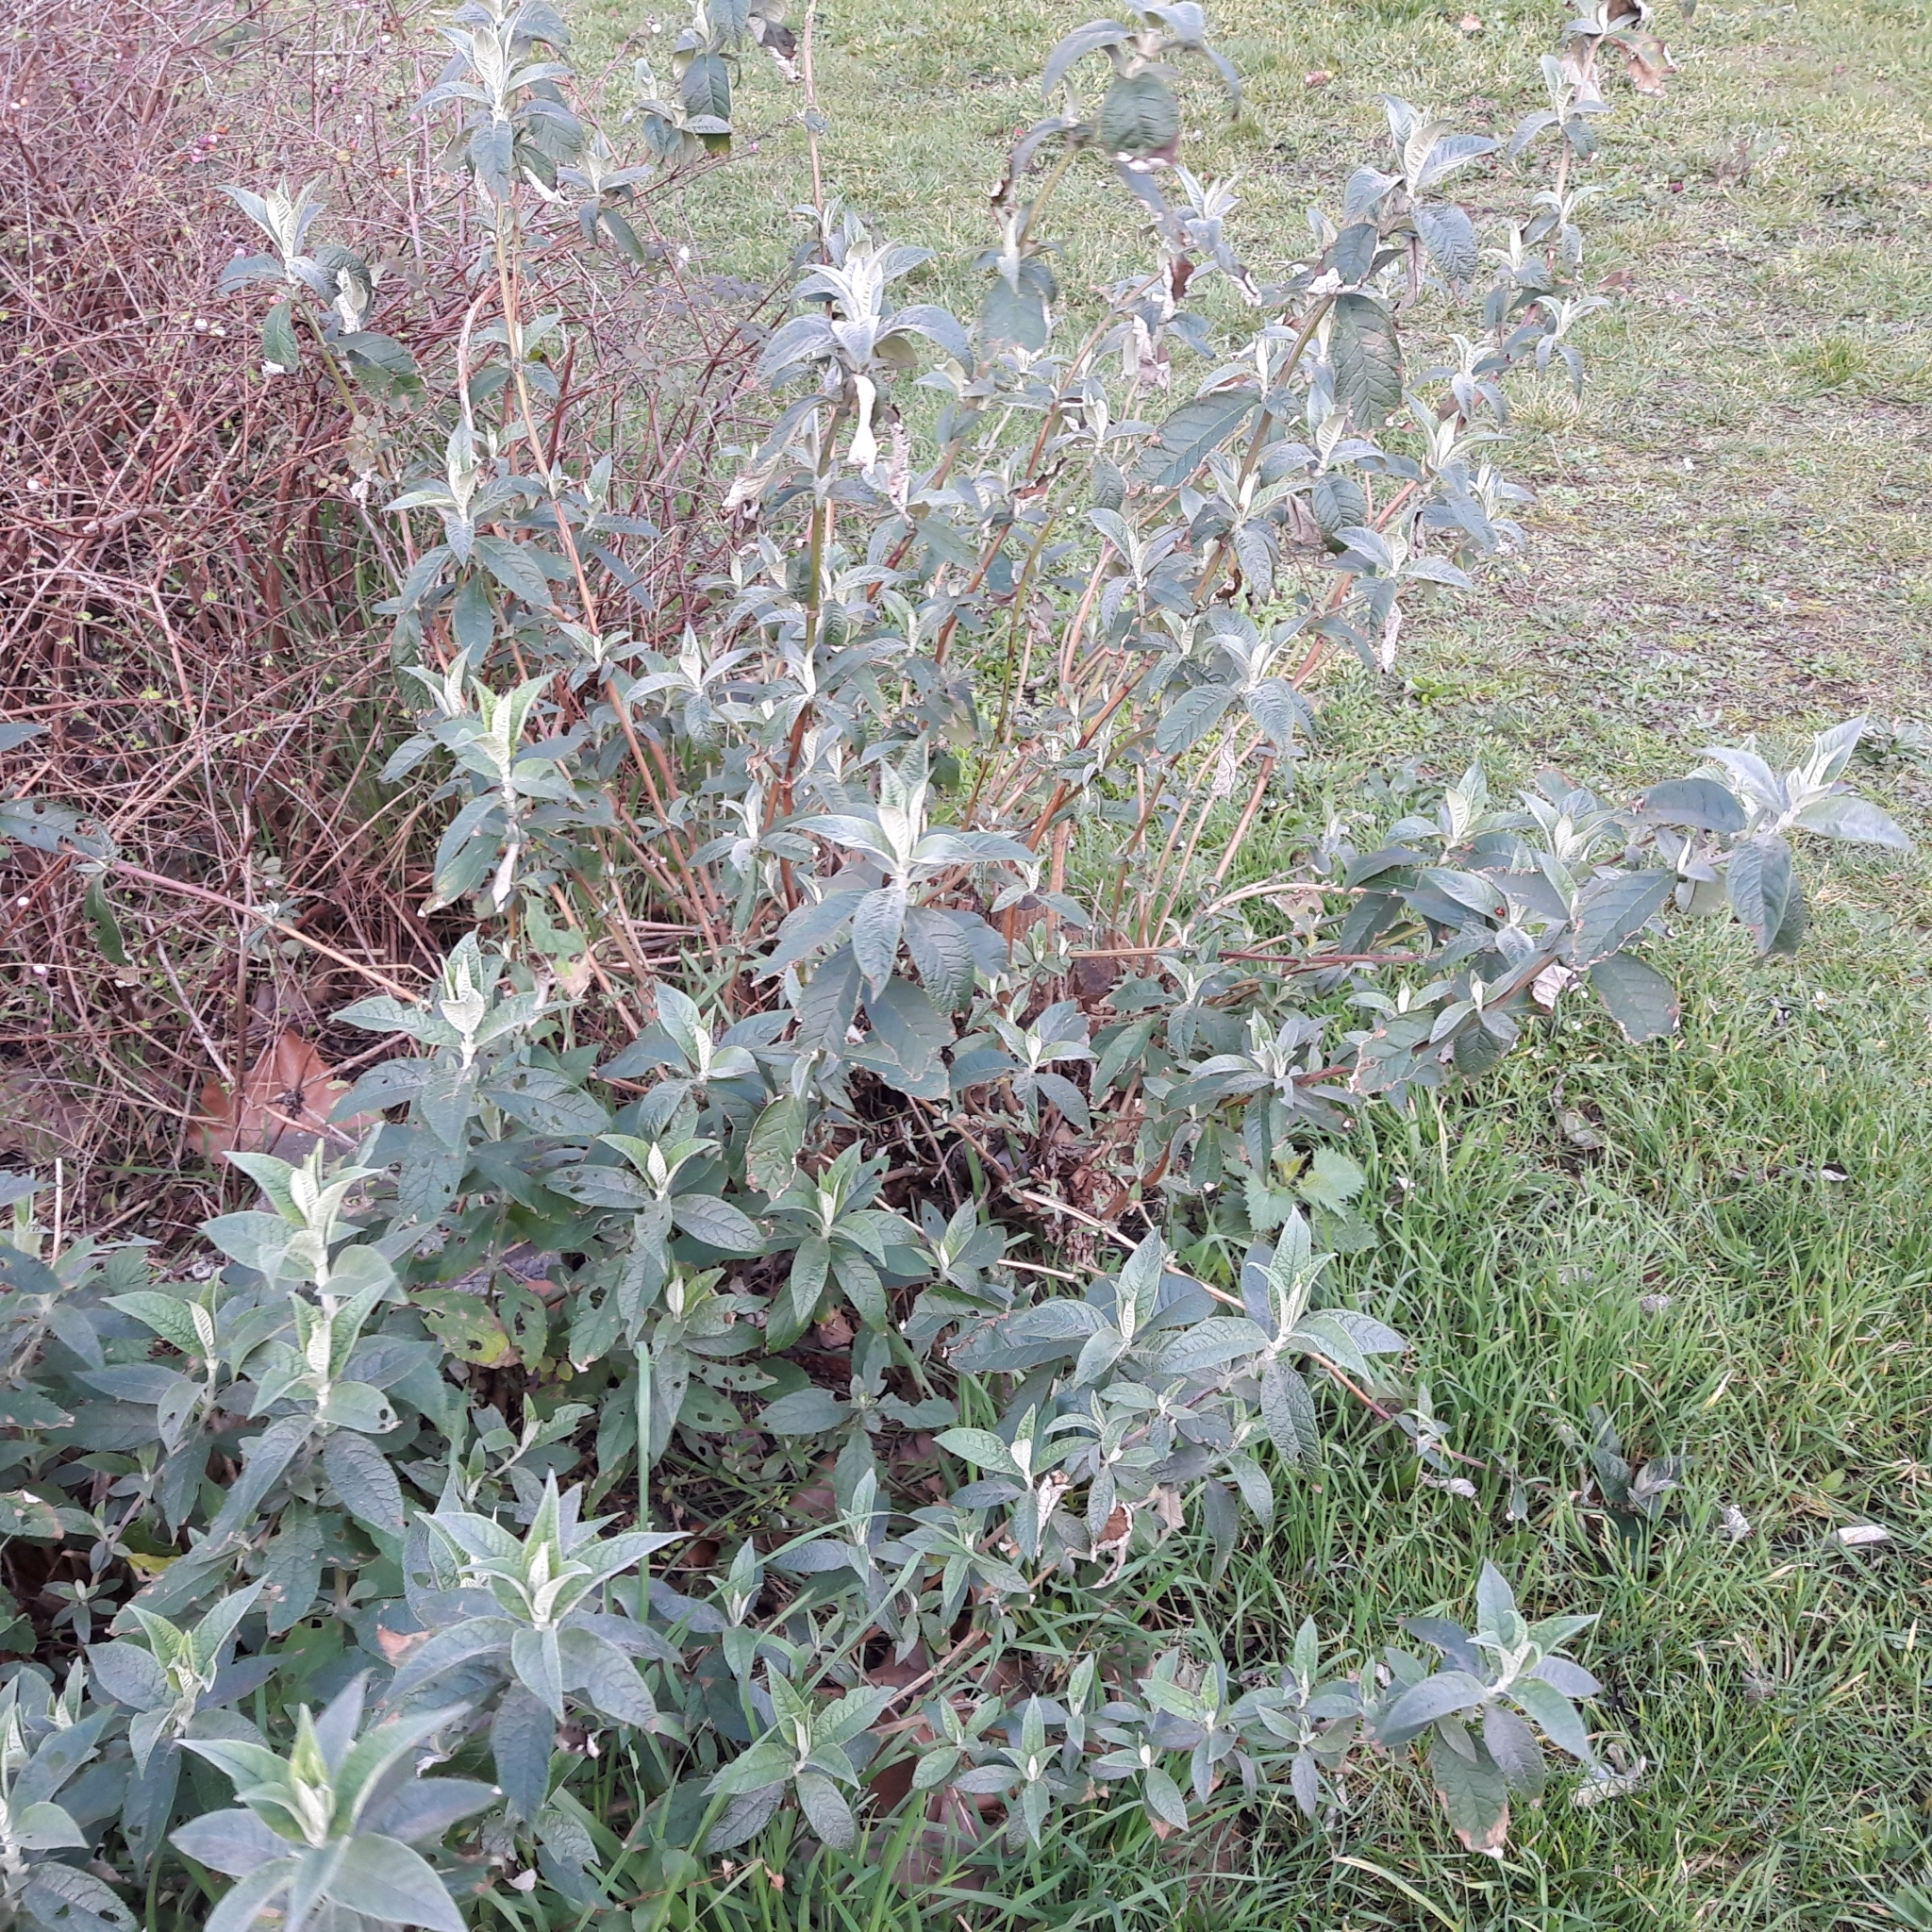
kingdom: Plantae
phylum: Tracheophyta
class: Magnoliopsida
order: Lamiales
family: Scrophulariaceae
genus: Buddleja
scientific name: Buddleja davidii
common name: Butterfly-bush
